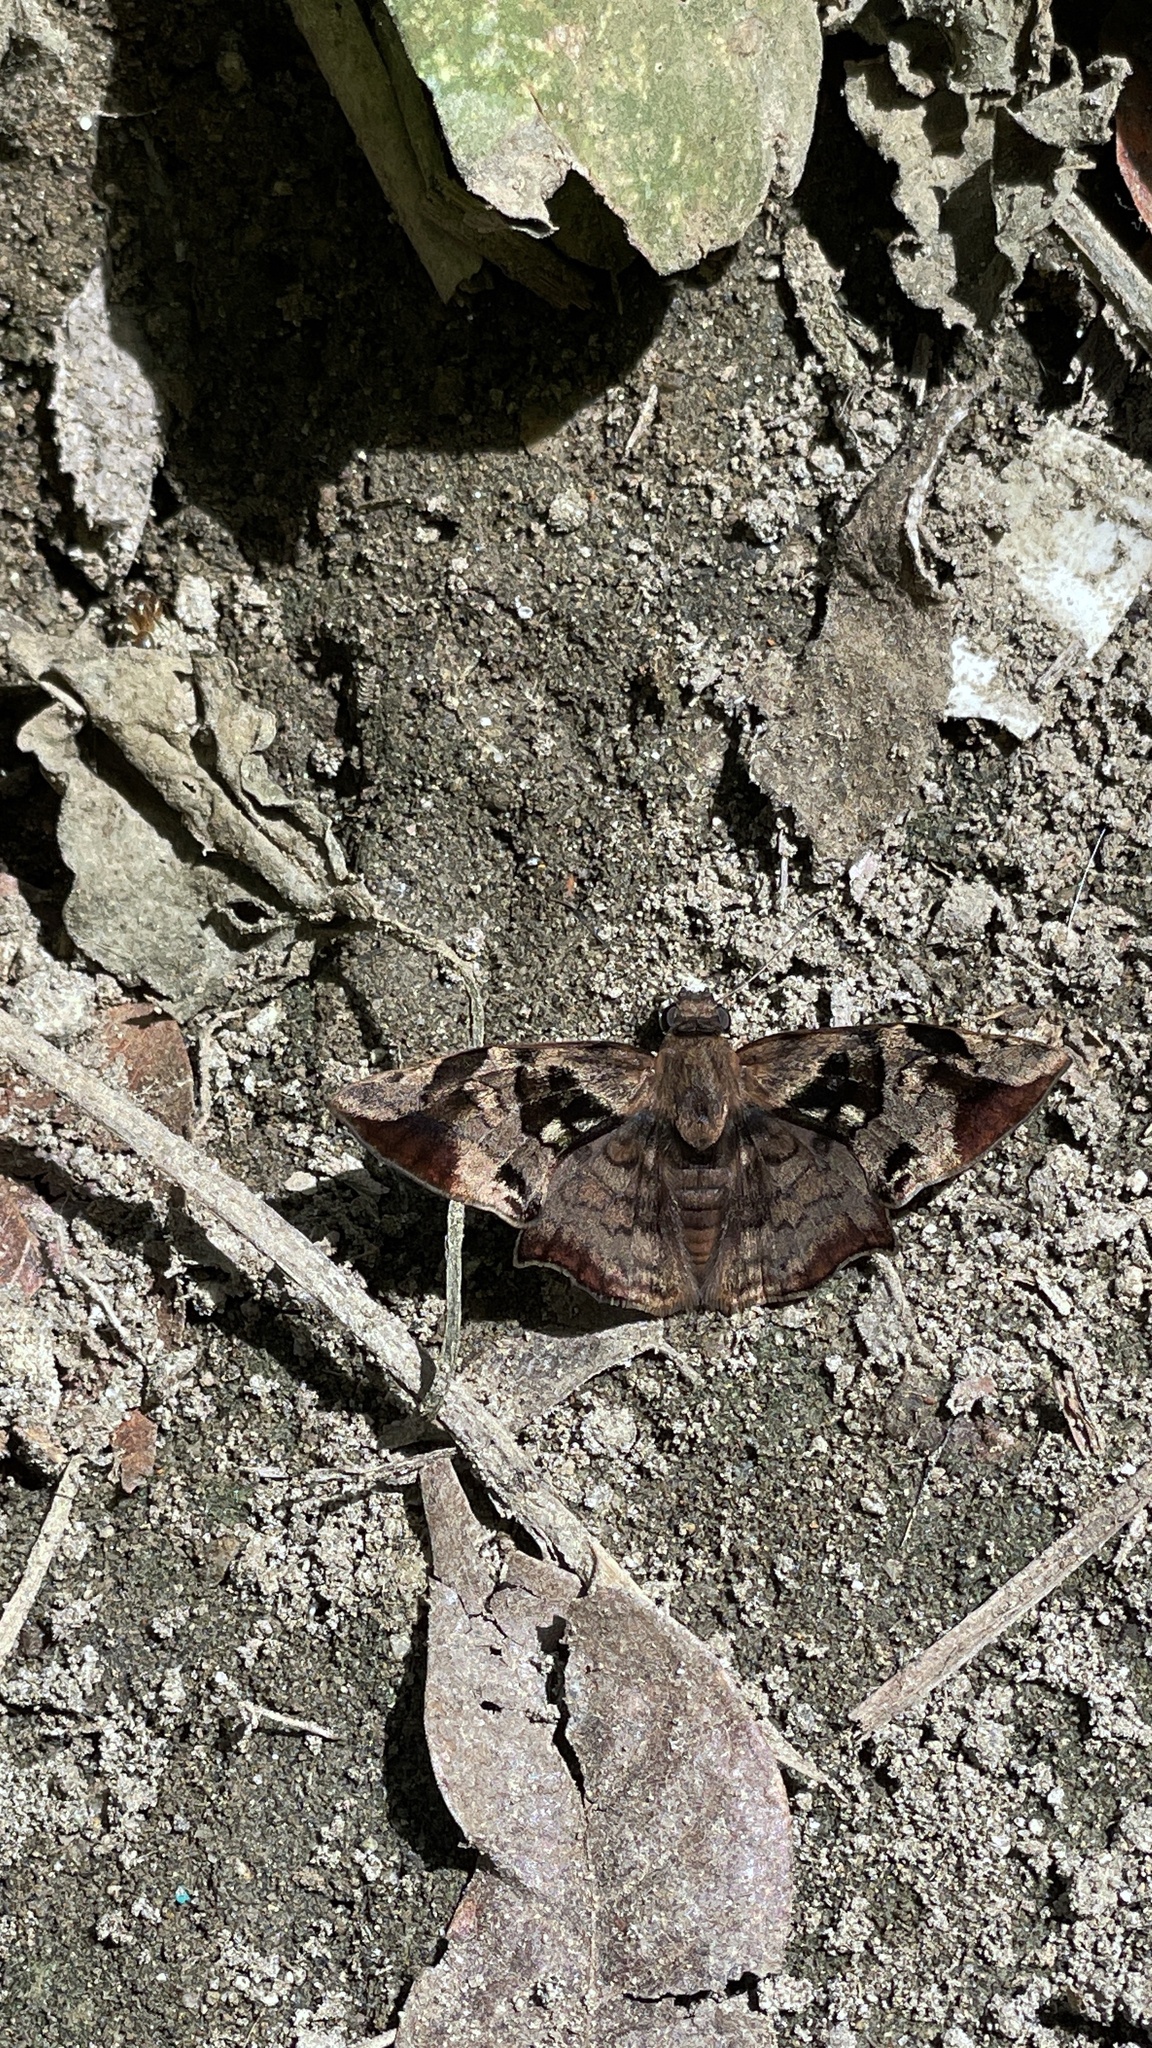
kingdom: Animalia
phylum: Arthropoda
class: Insecta
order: Lepidoptera
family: Hesperiidae
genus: Antigonus
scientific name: Antigonus nearchus
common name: Death-mask spurwing
